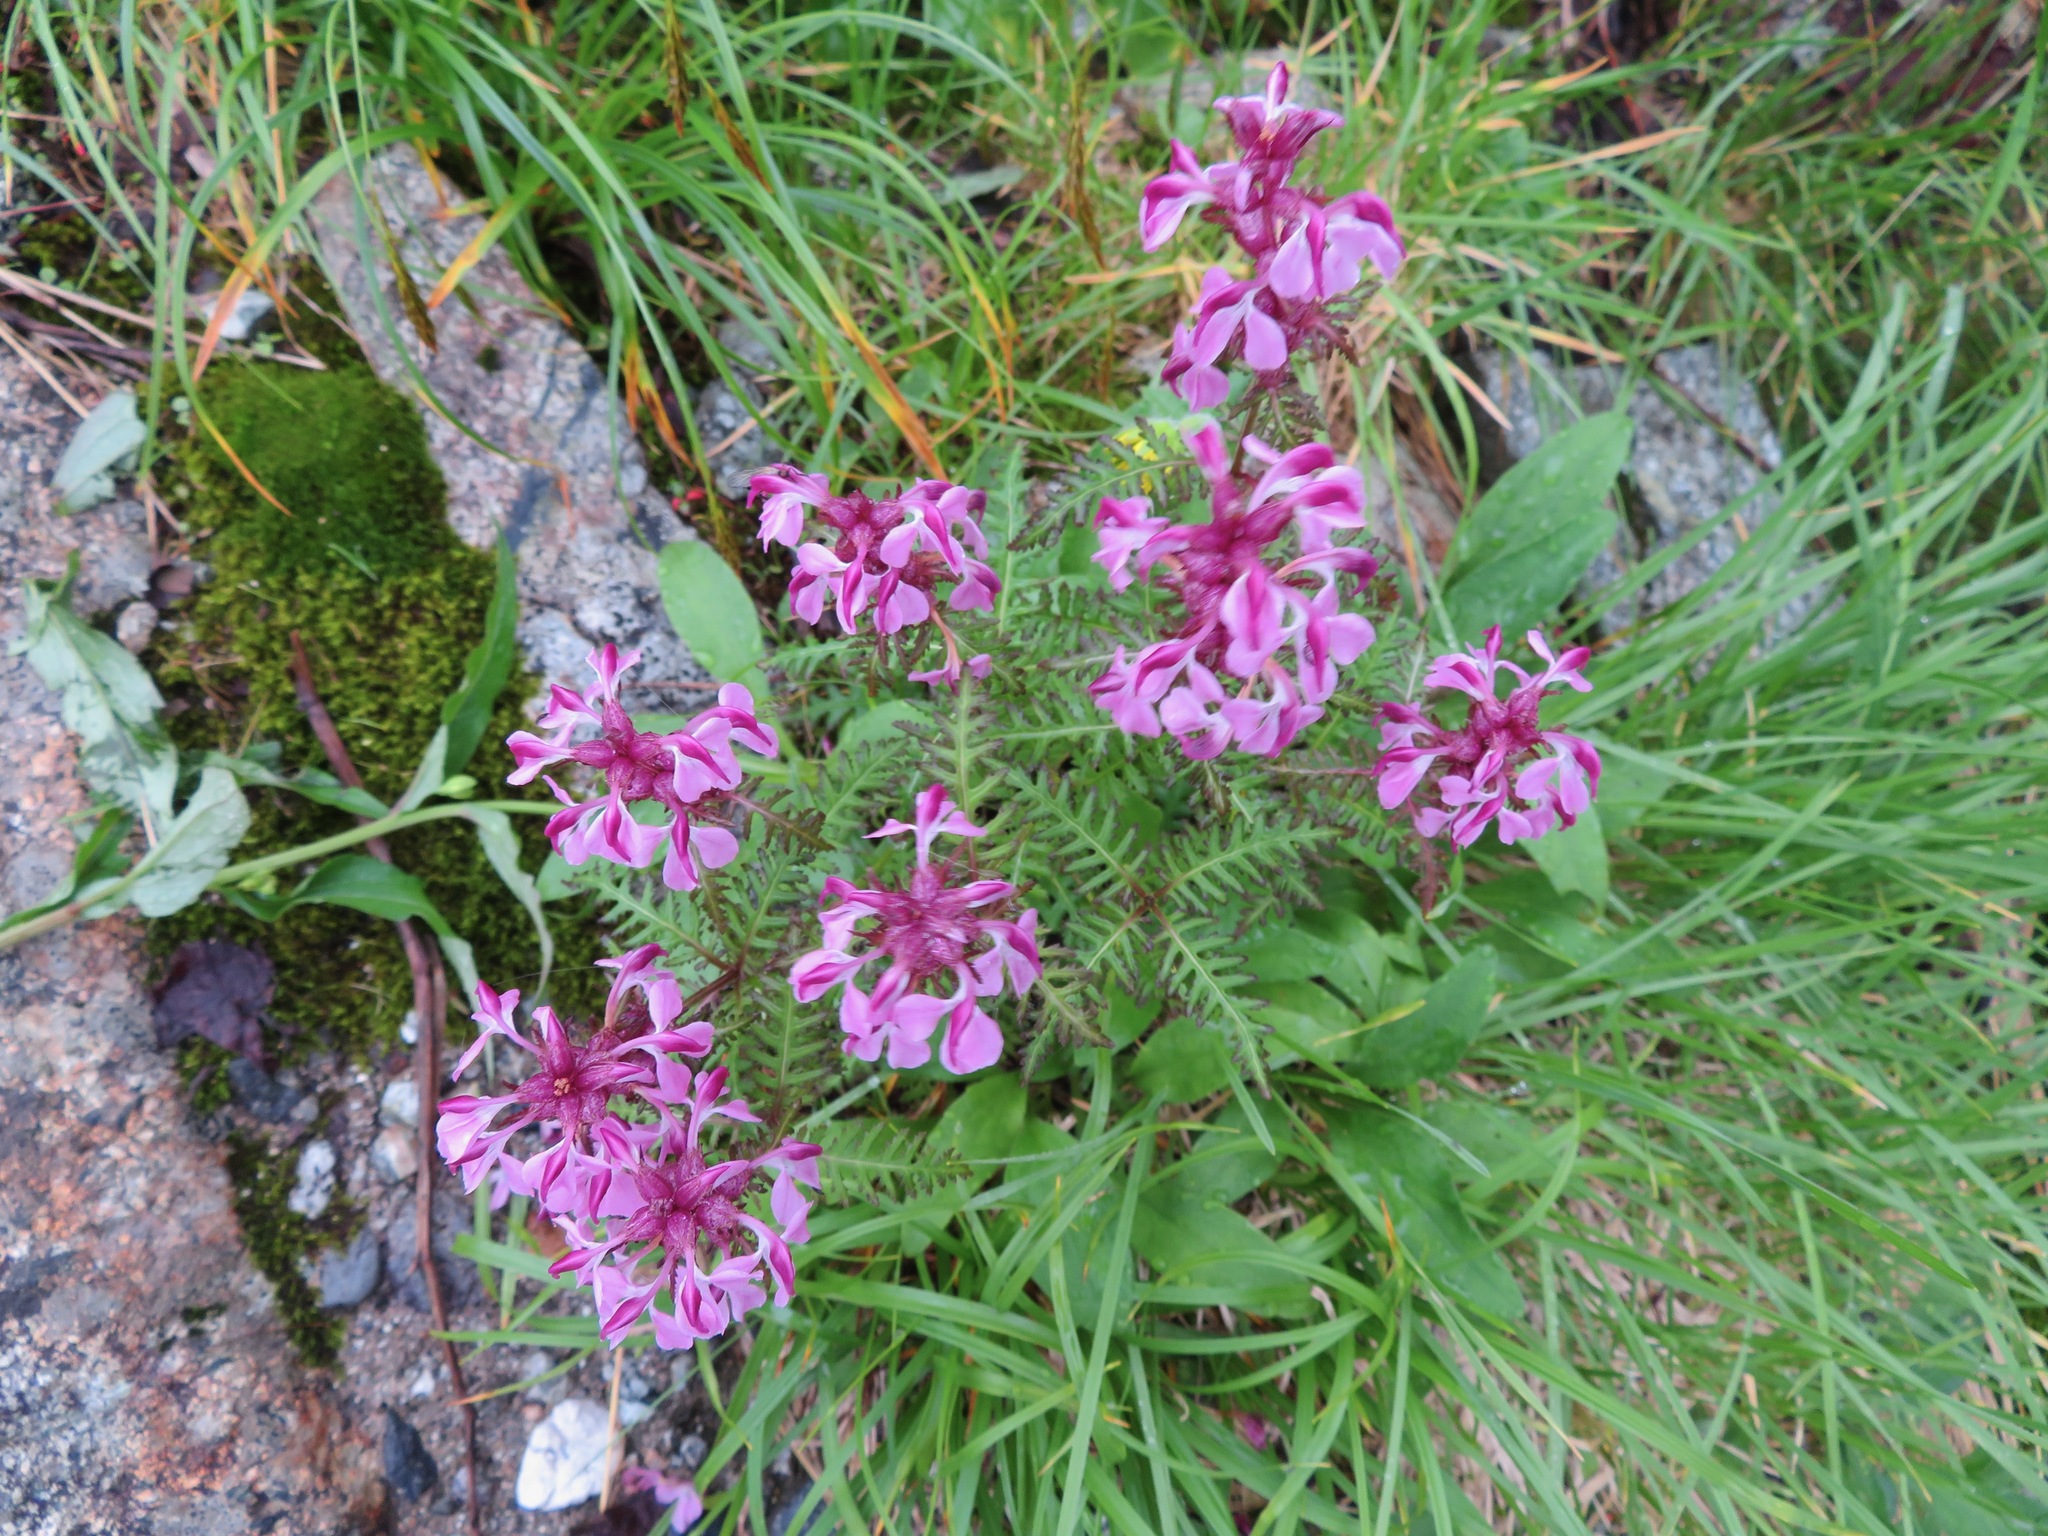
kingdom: Plantae
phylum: Tracheophyta
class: Magnoliopsida
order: Lamiales
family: Orobanchaceae
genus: Pedicularis
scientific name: Pedicularis chamissonis
